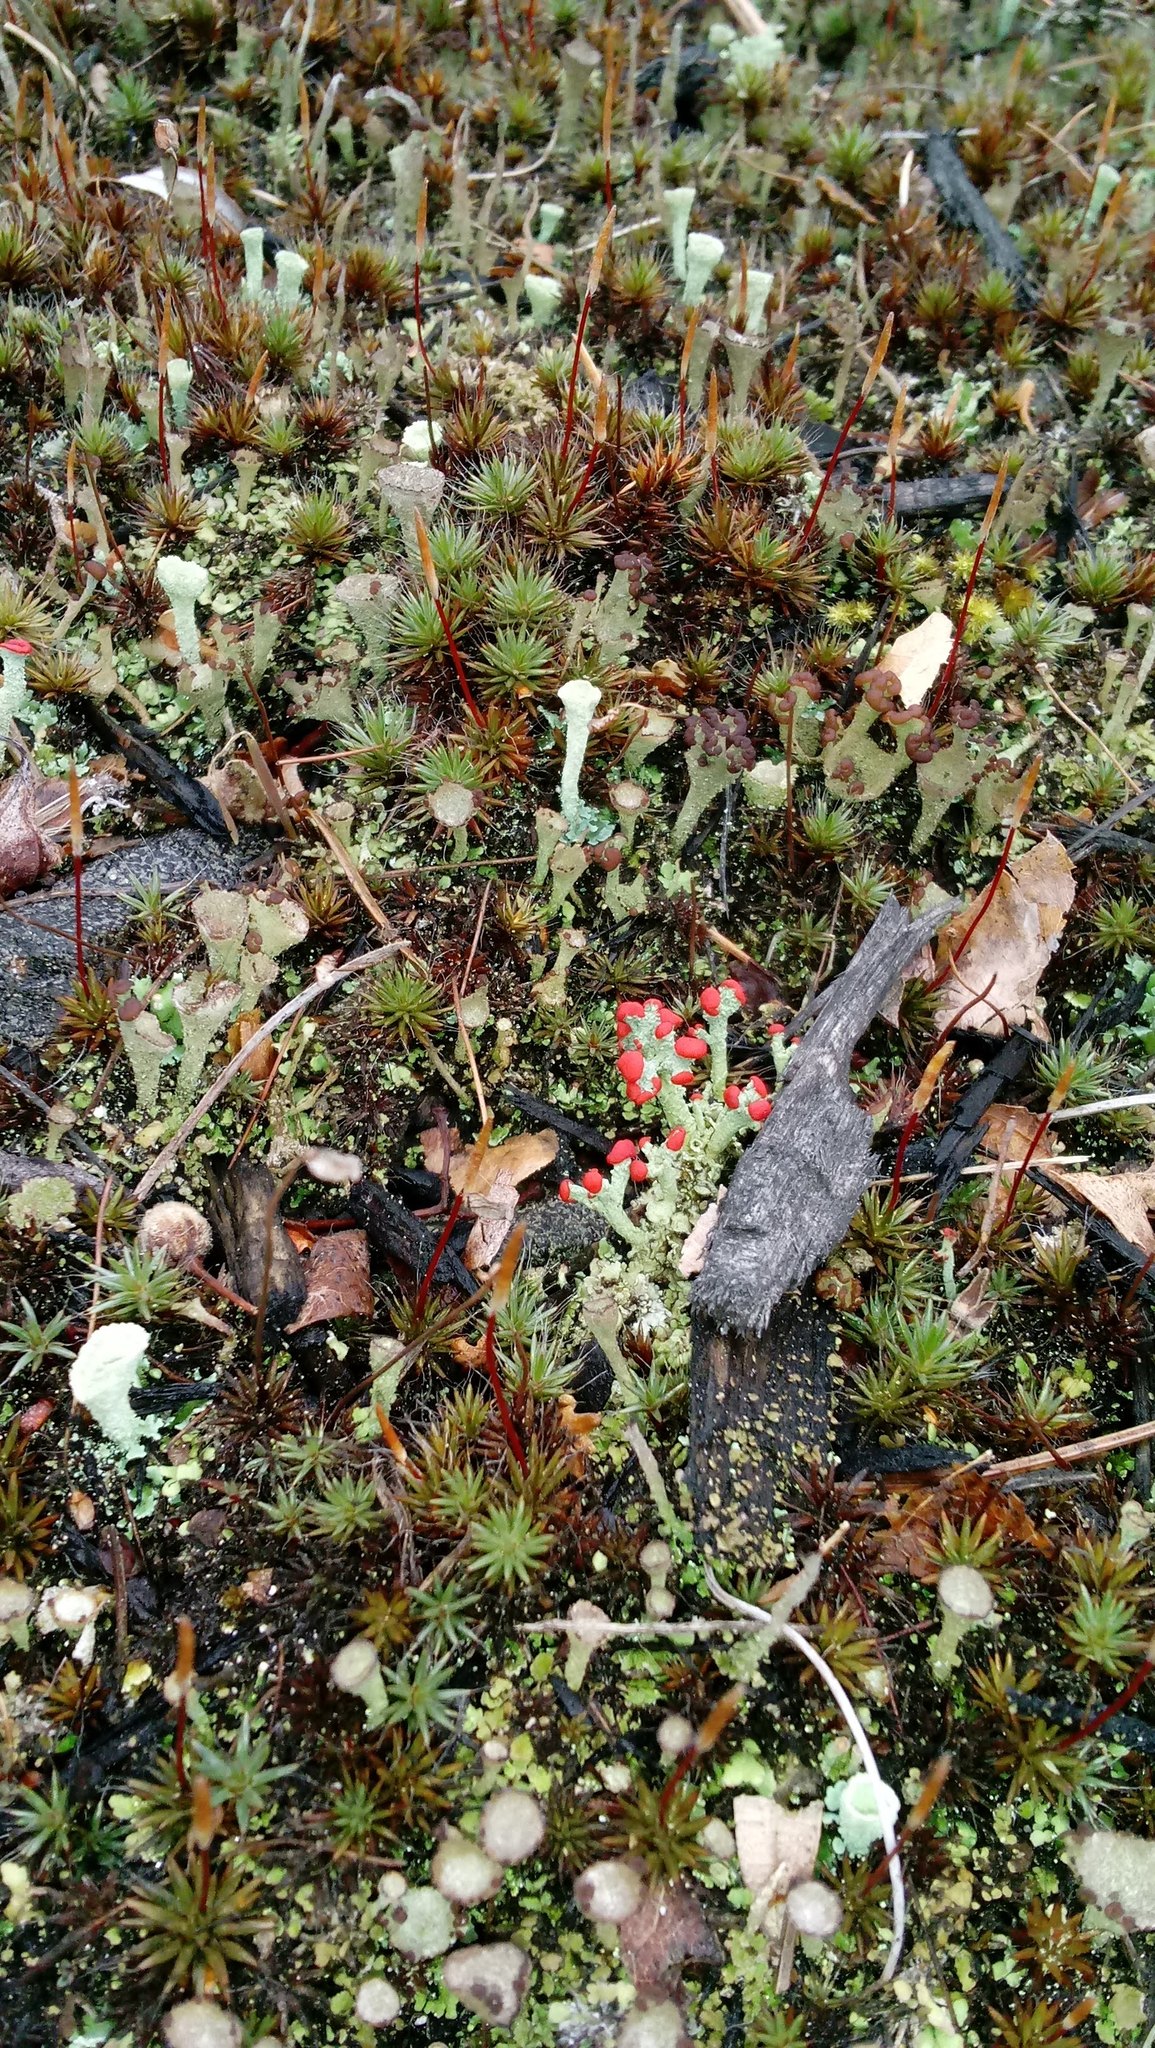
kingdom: Fungi
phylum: Ascomycota
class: Lecanoromycetes
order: Lecanorales
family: Cladoniaceae
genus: Cladonia
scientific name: Cladonia cristatella
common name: British soldier lichen
